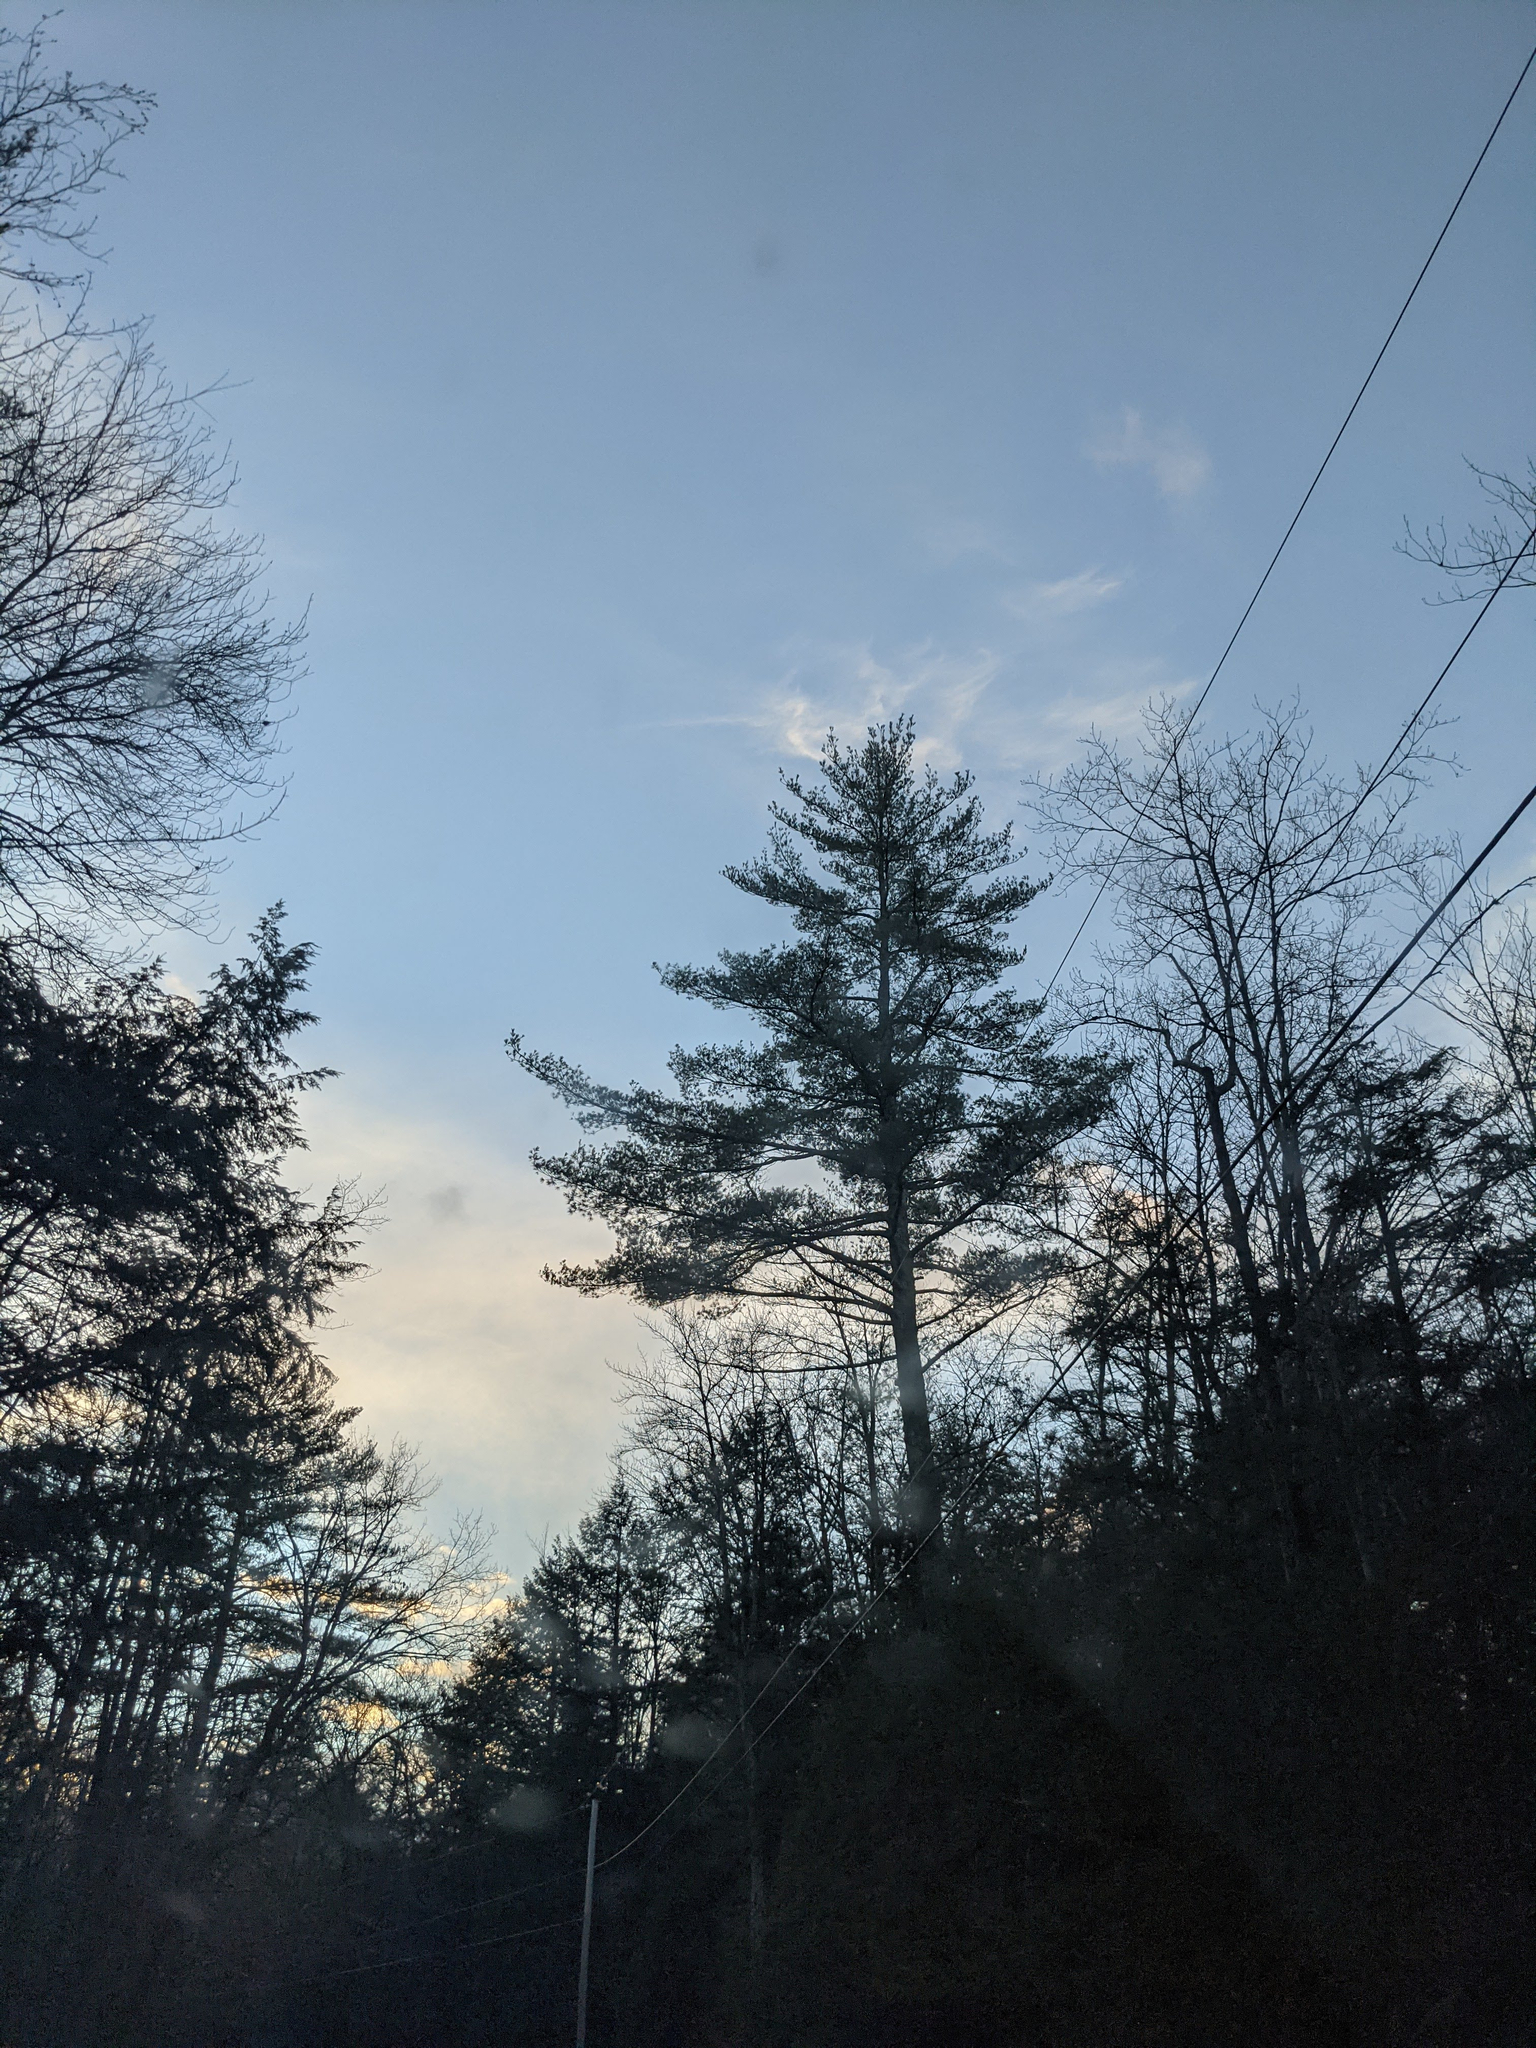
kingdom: Plantae
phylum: Tracheophyta
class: Pinopsida
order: Pinales
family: Pinaceae
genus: Pinus
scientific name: Pinus strobus
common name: Weymouth pine
